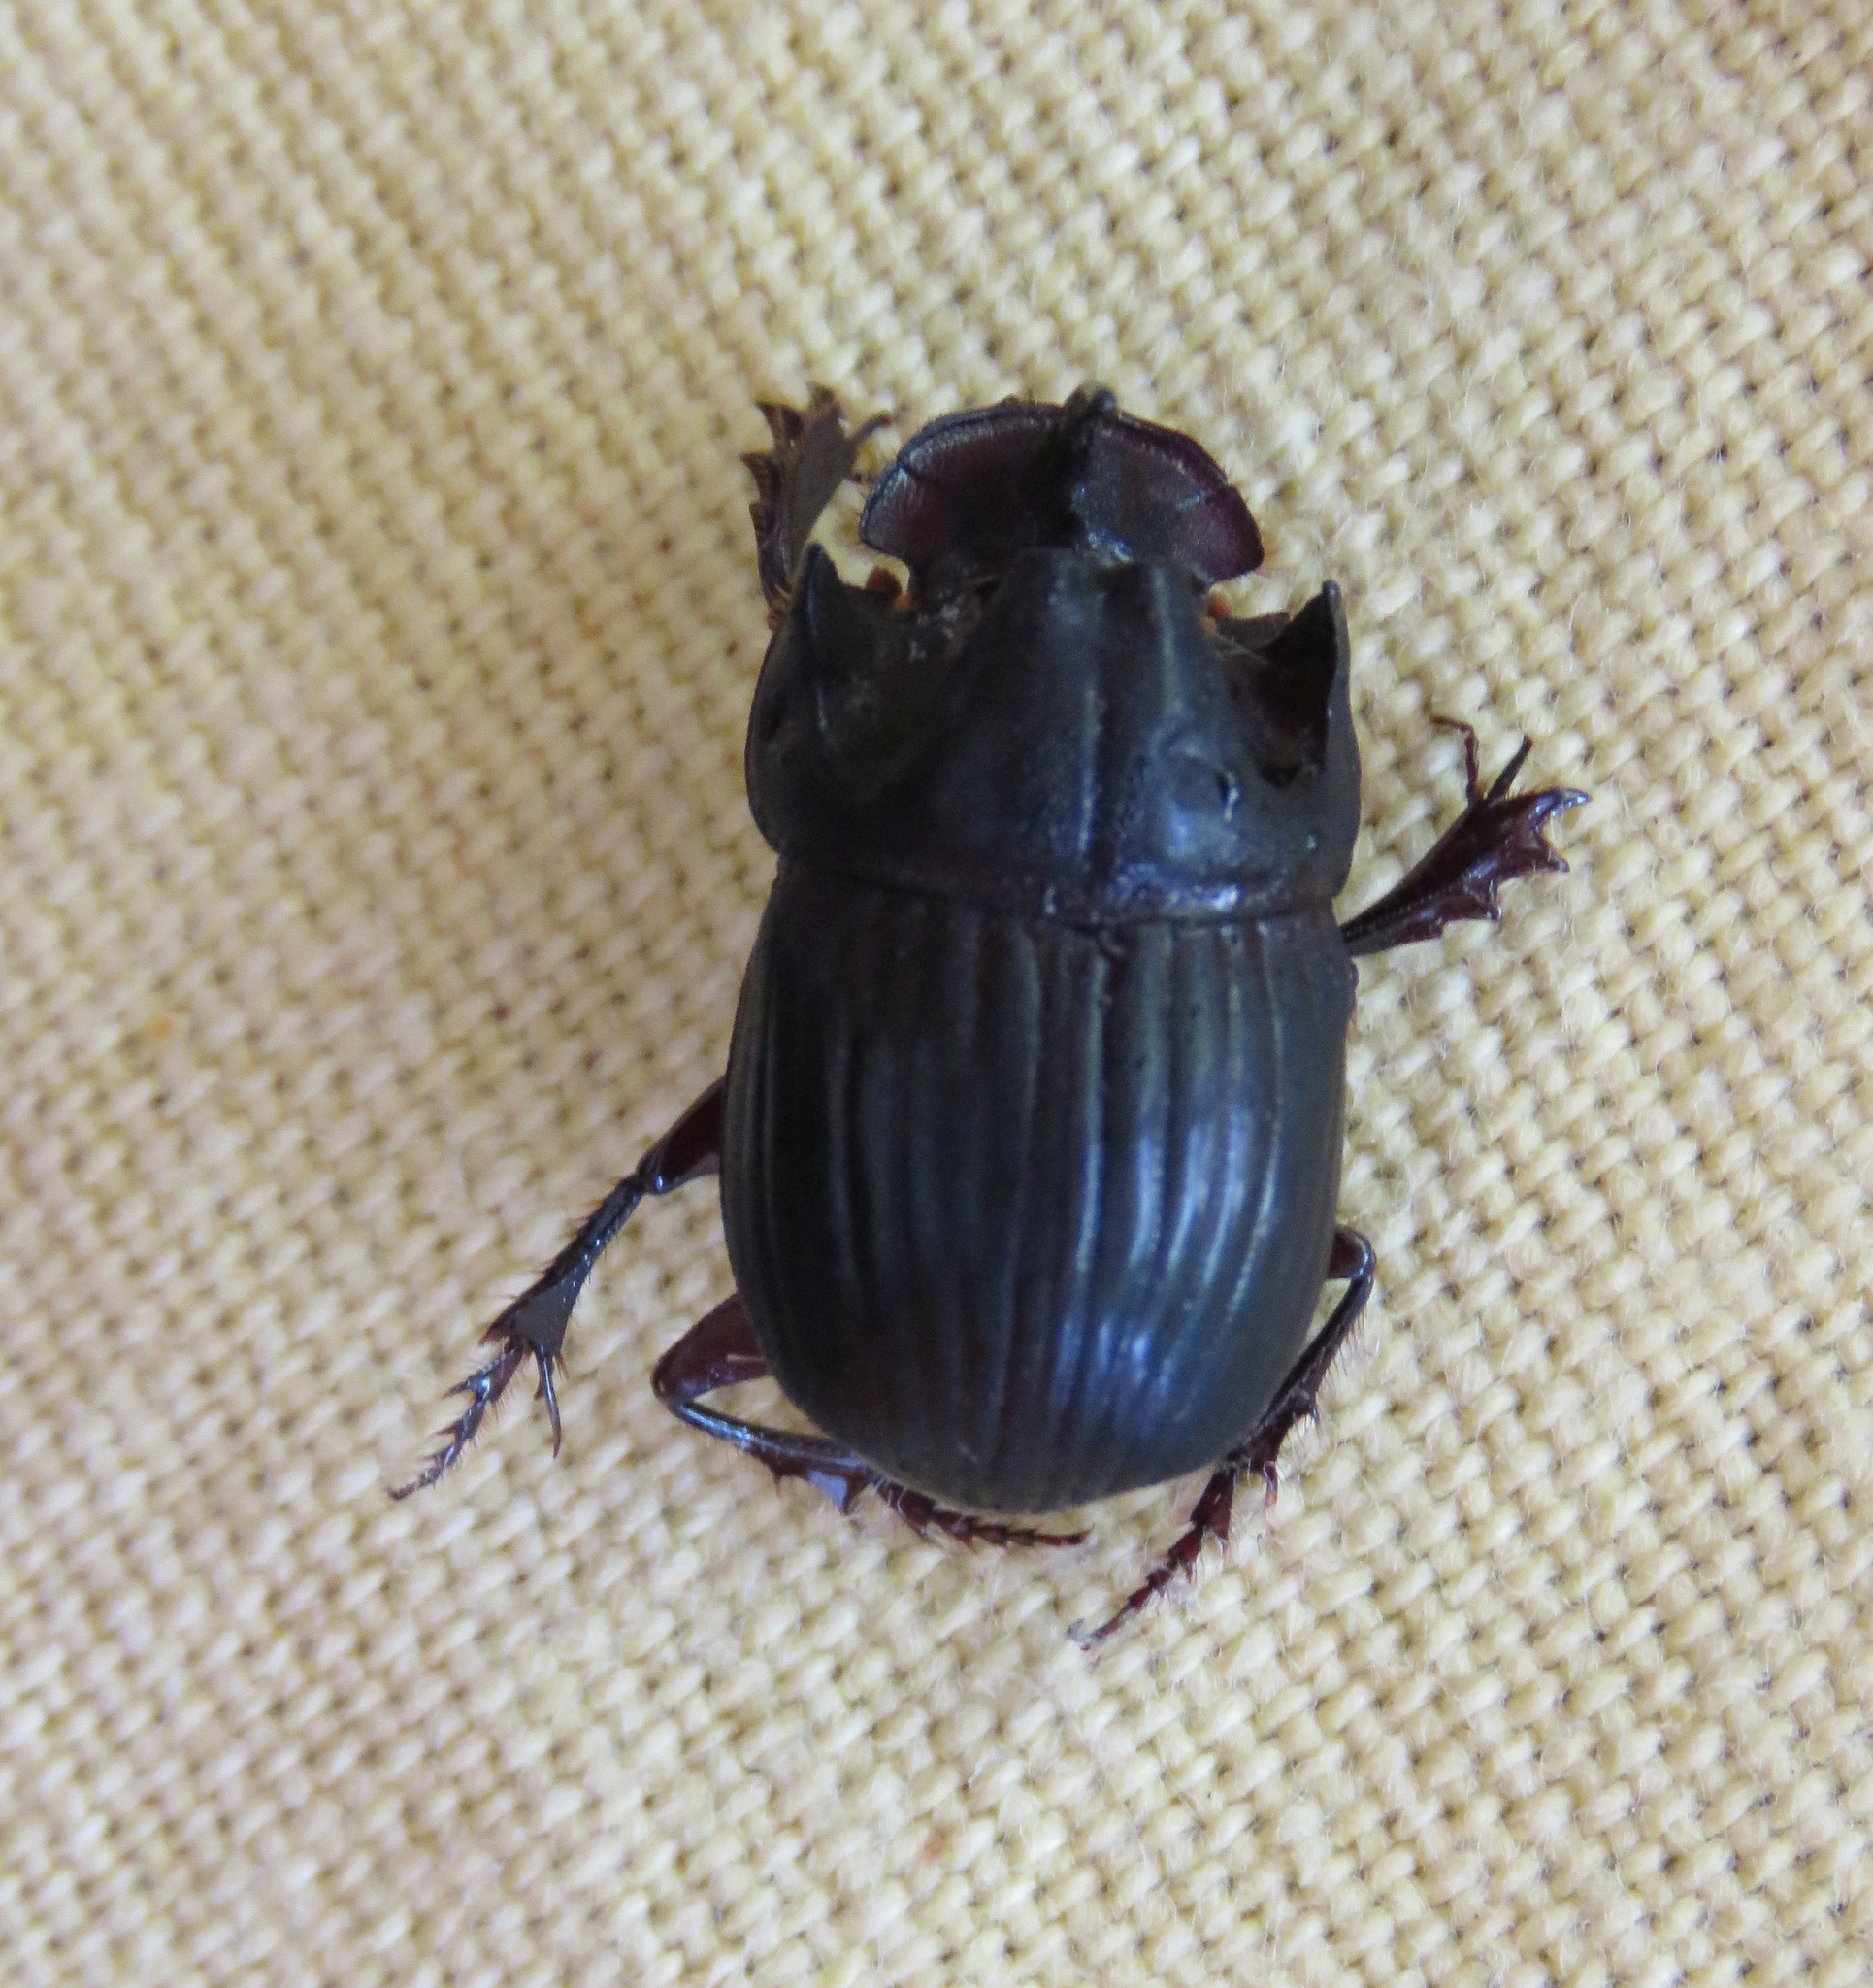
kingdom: Animalia
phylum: Arthropoda
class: Insecta
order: Coleoptera
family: Scarabaeidae
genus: Copris
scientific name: Copris lugubris
